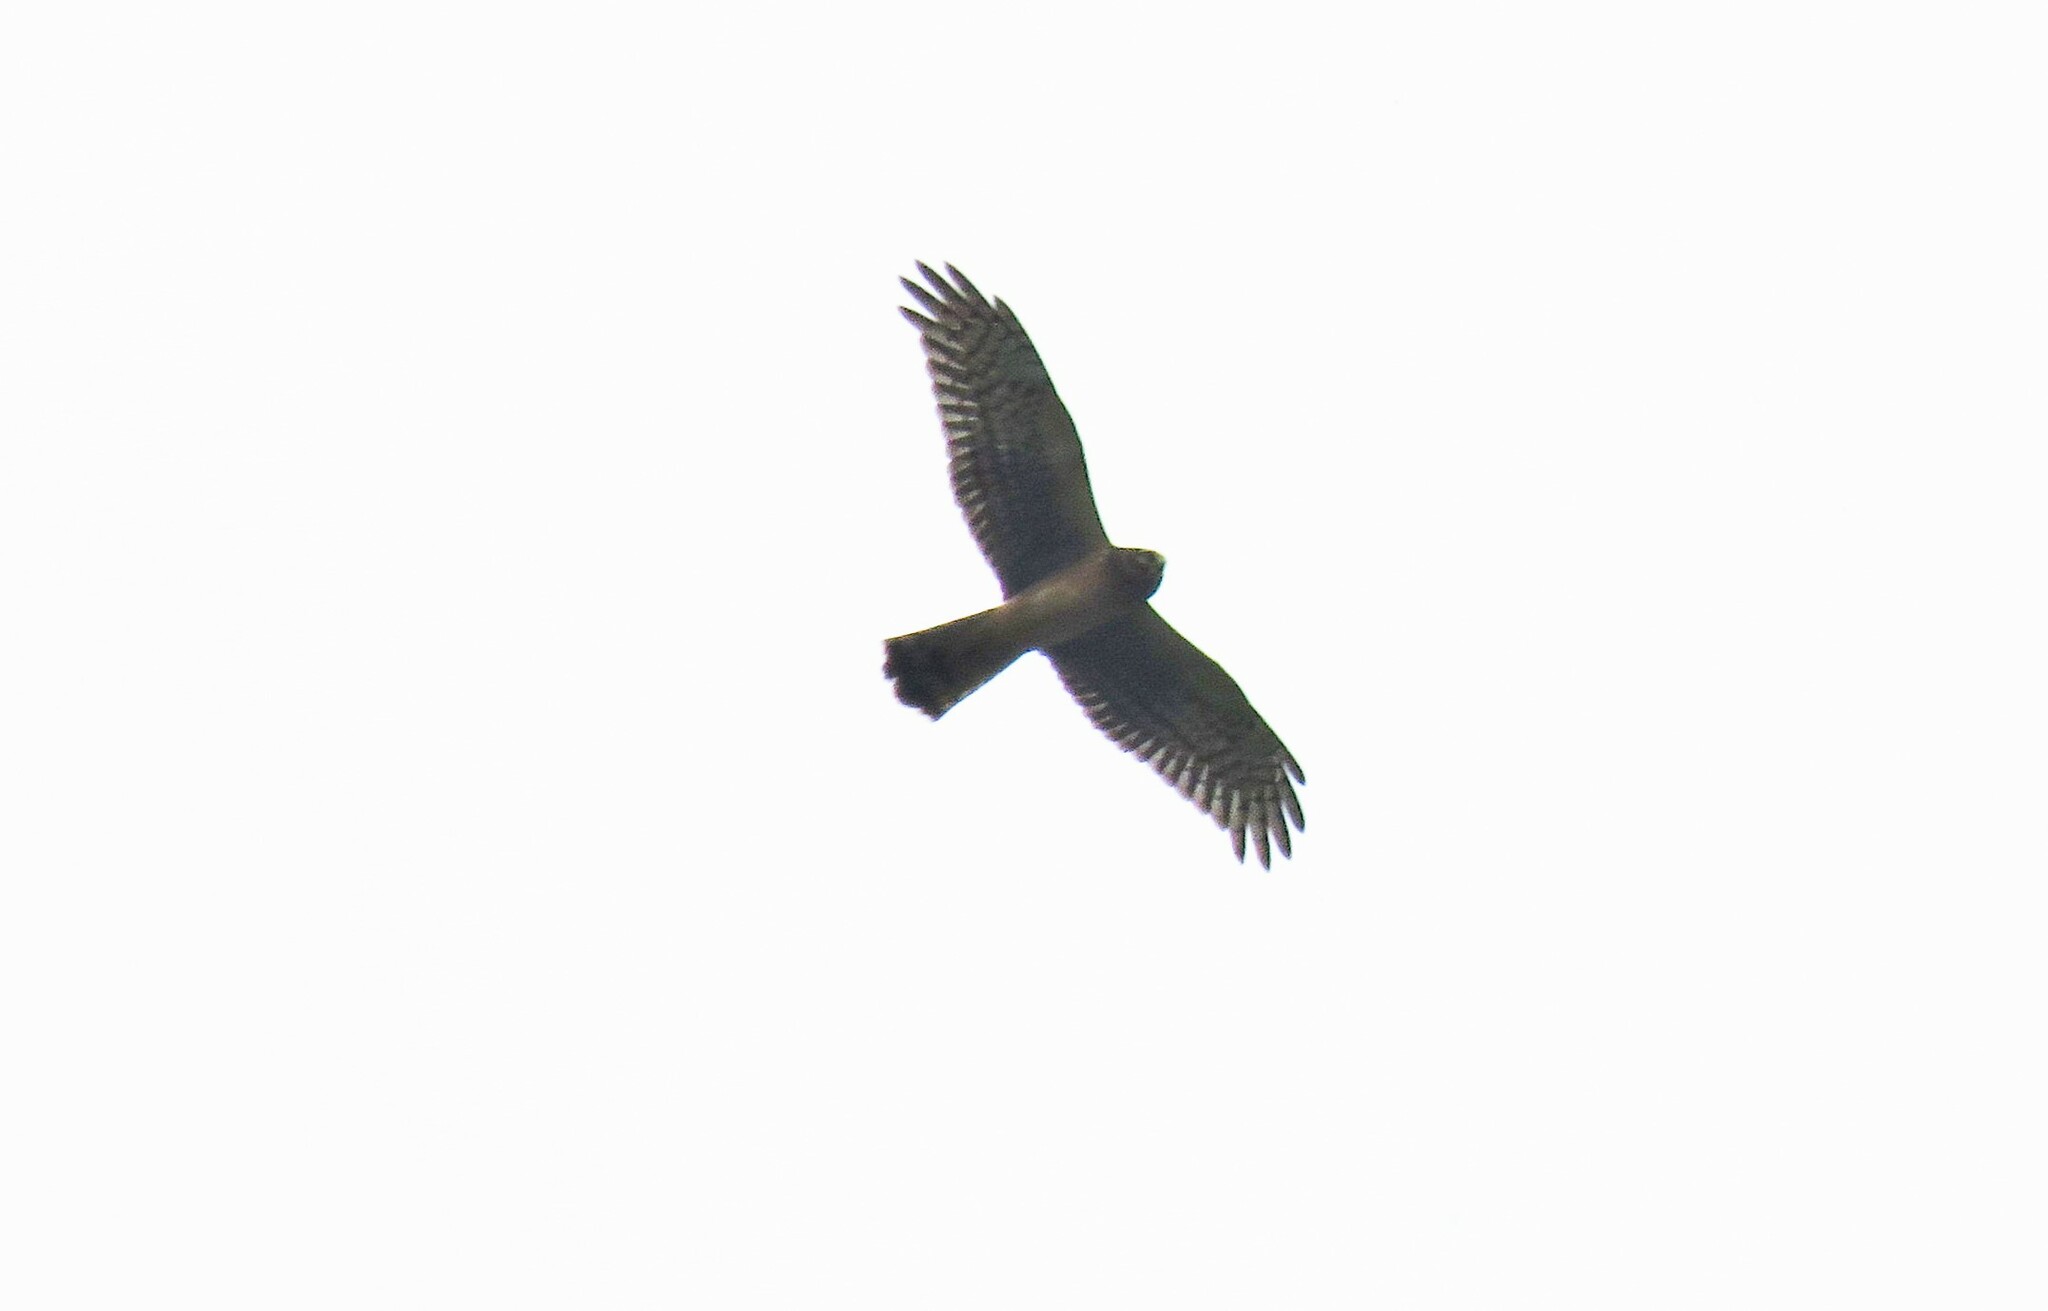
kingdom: Animalia
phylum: Chordata
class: Aves
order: Accipitriformes
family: Accipitridae
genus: Circus
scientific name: Circus cyaneus
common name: Hen harrier
